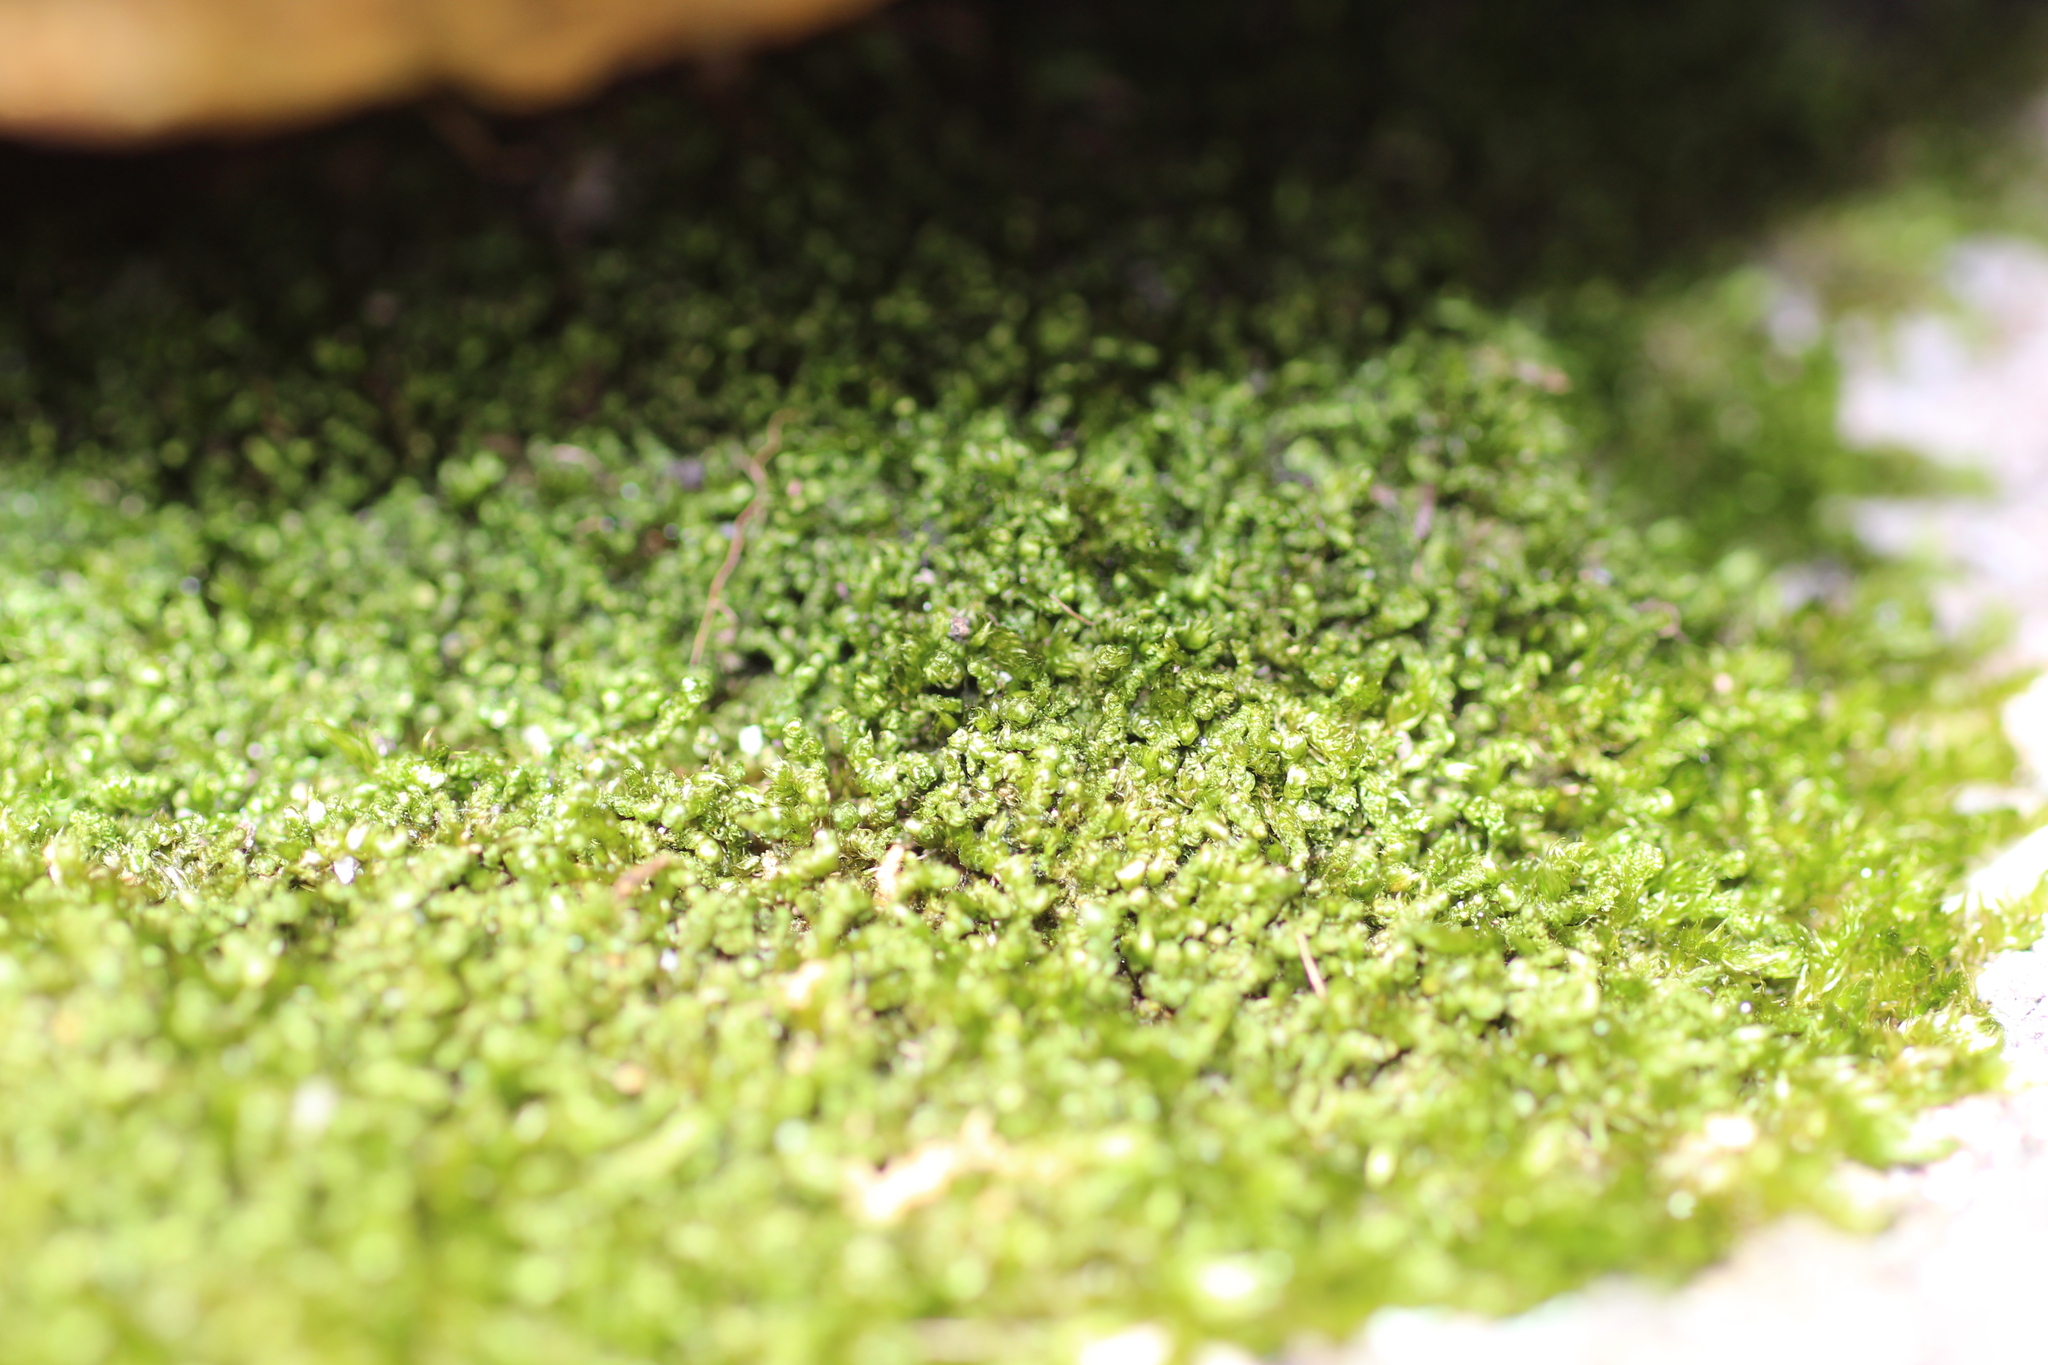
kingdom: Plantae
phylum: Bryophyta
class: Bryopsida
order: Hypnales
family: Sematophyllaceae
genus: Sematophyllum
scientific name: Sematophyllum homomallum
